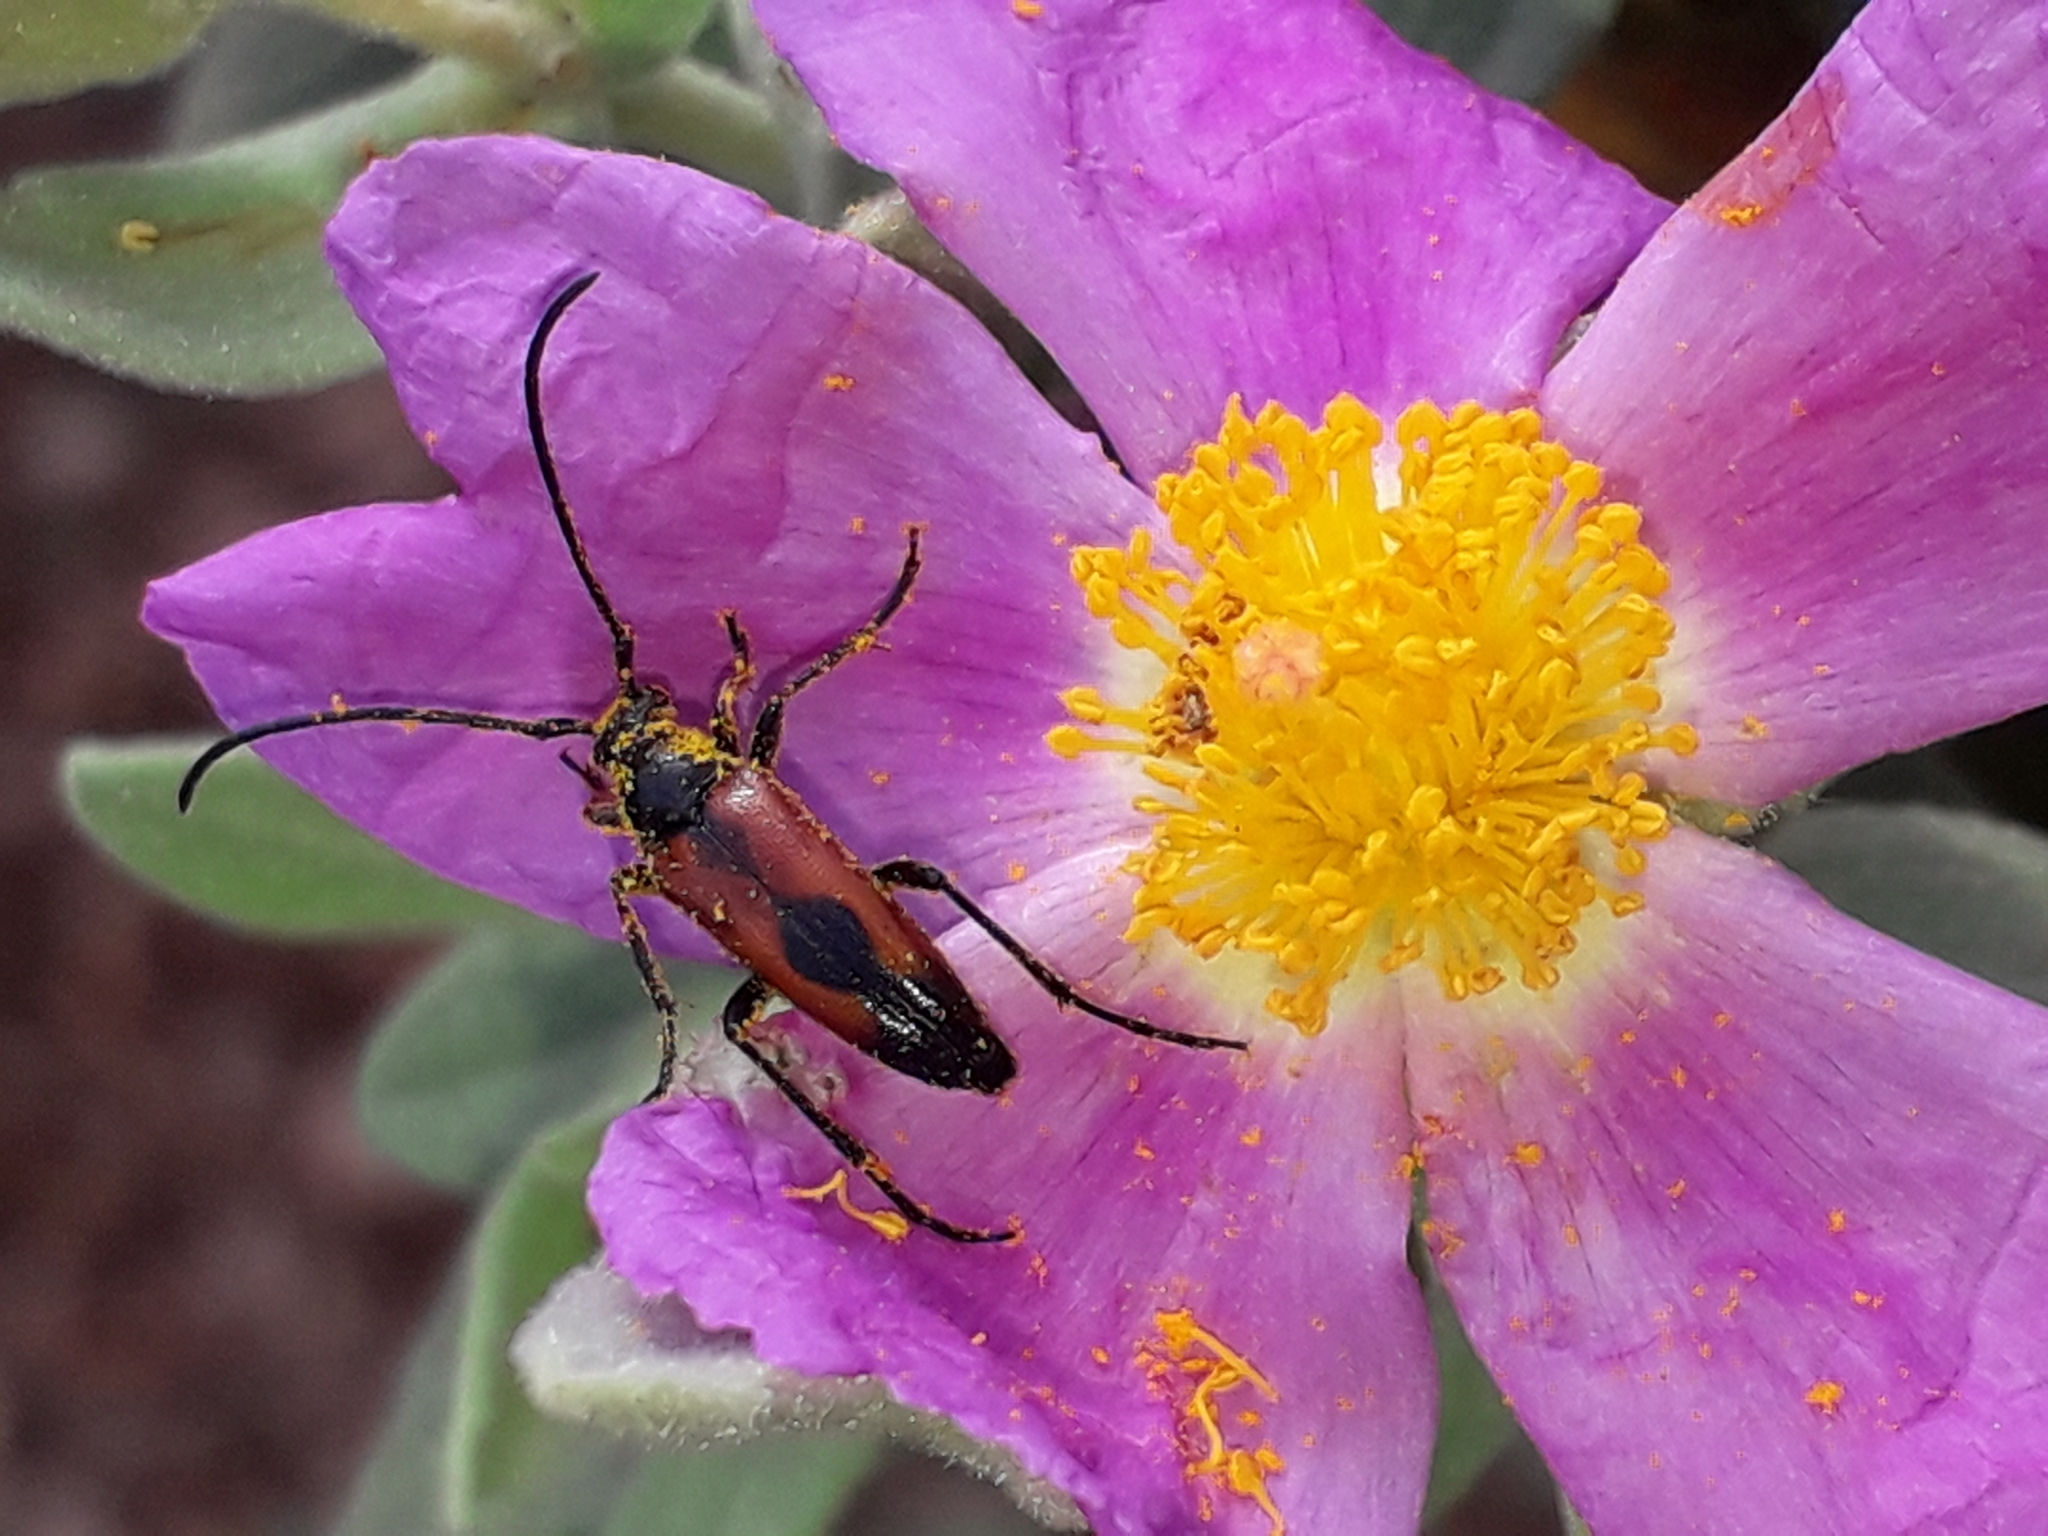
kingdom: Animalia
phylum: Arthropoda
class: Insecta
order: Coleoptera
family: Cerambycidae
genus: Stenurella
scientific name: Stenurella bifasciata
